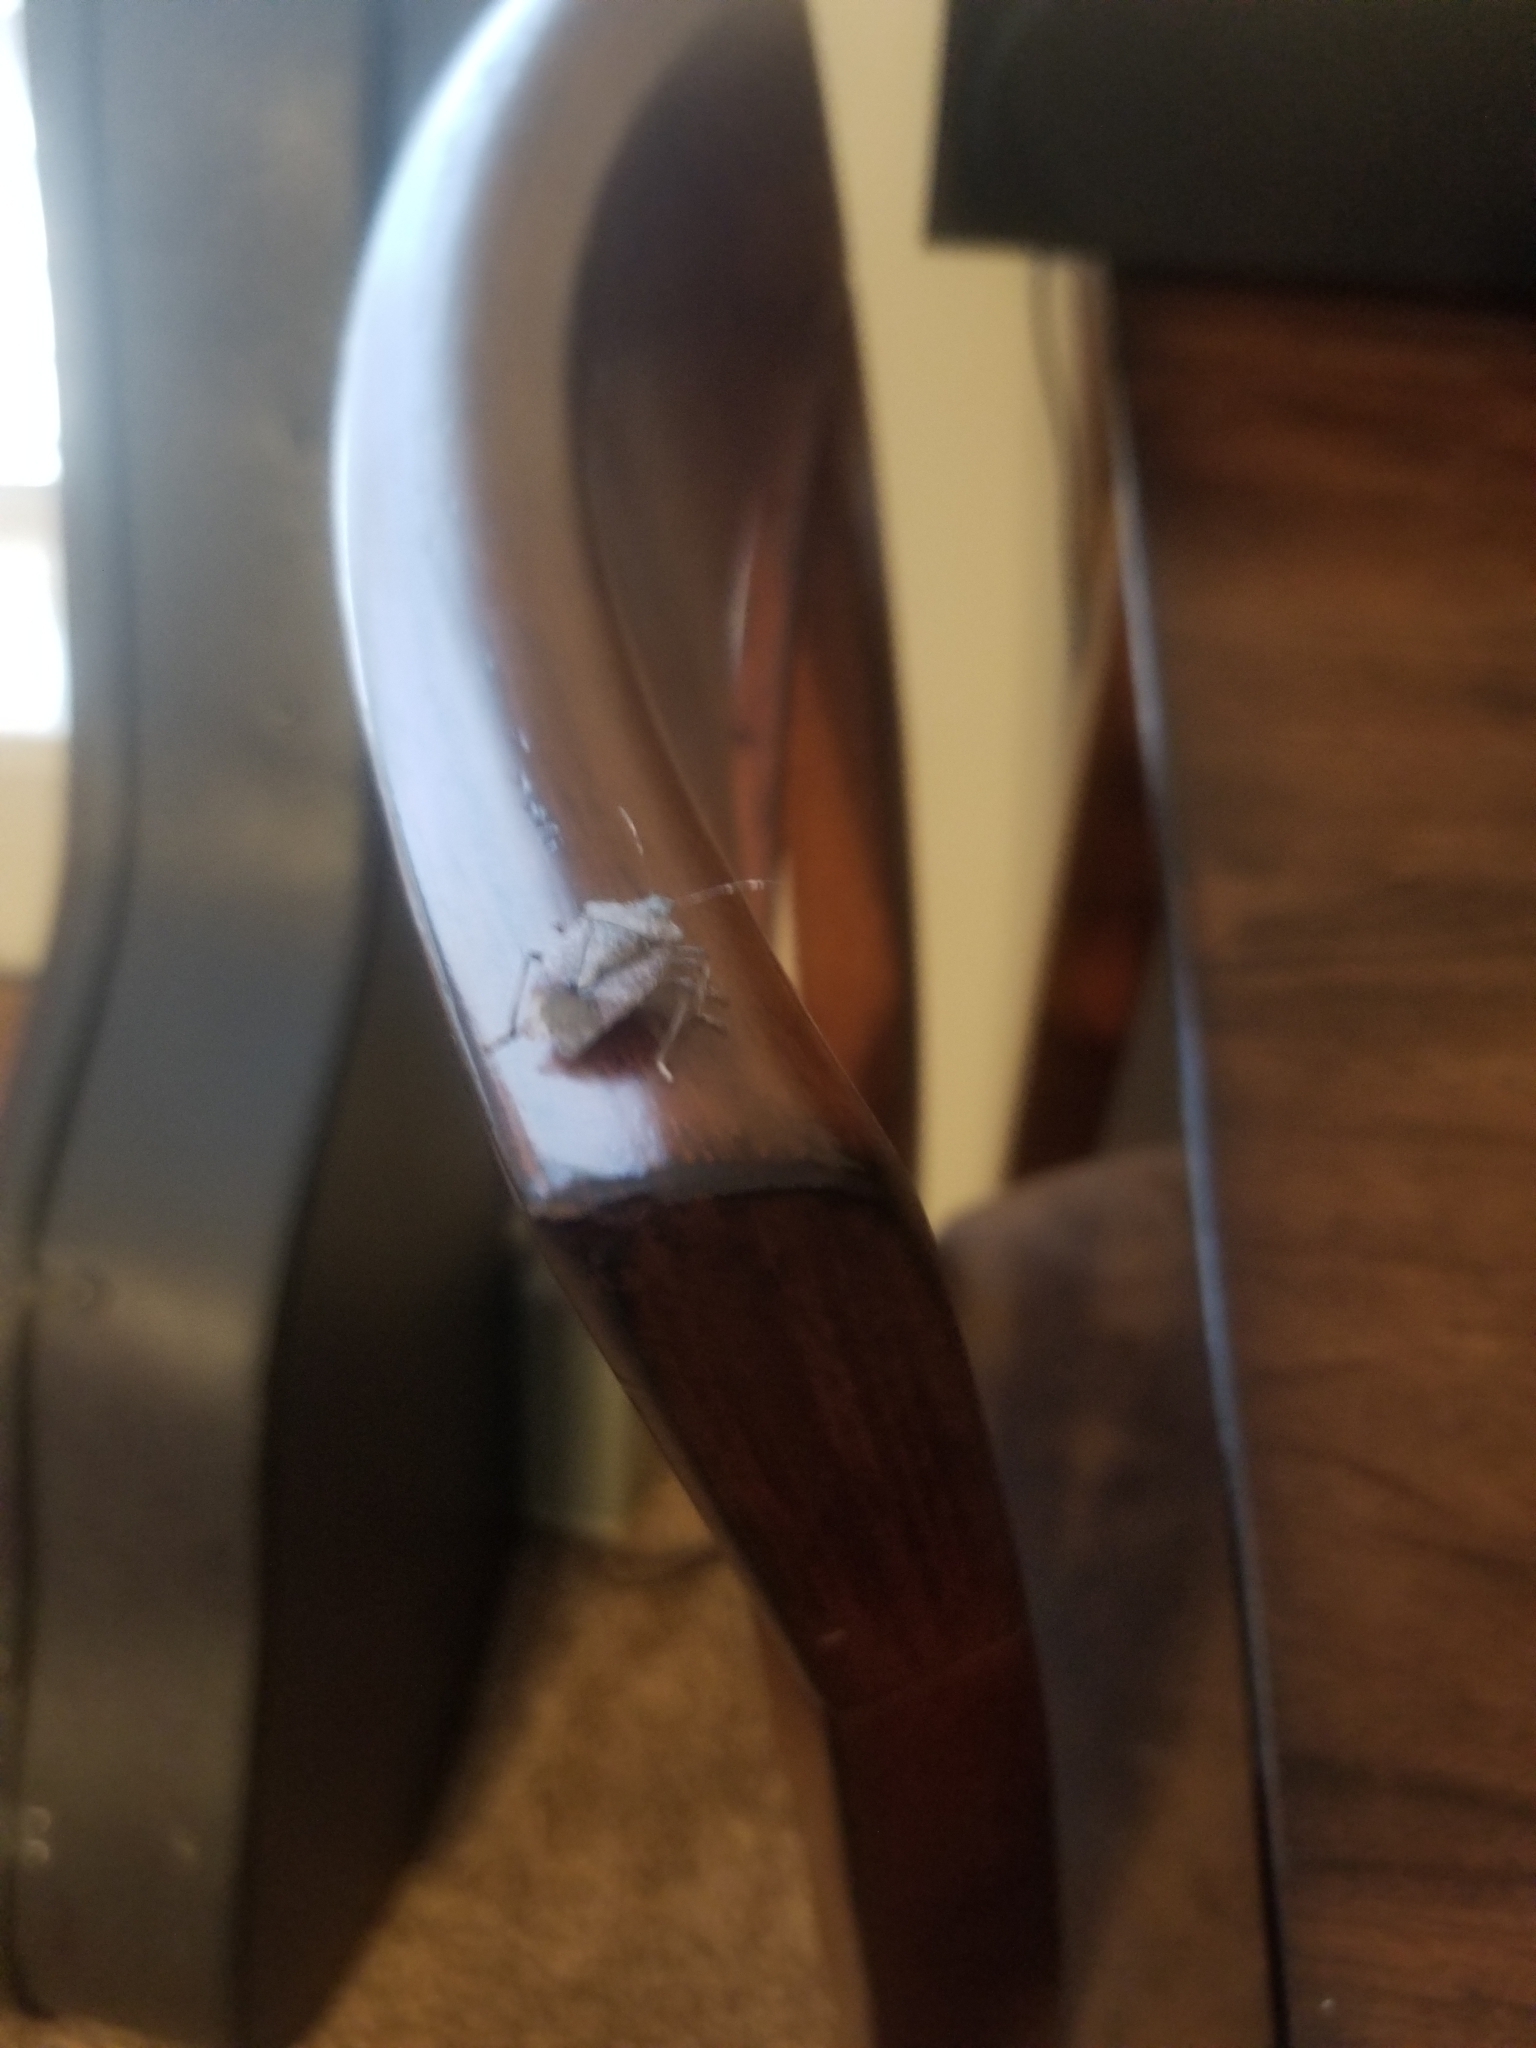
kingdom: Animalia
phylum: Arthropoda
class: Insecta
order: Hemiptera
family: Pentatomidae
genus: Halyomorpha
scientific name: Halyomorpha halys
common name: Brown marmorated stink bug
